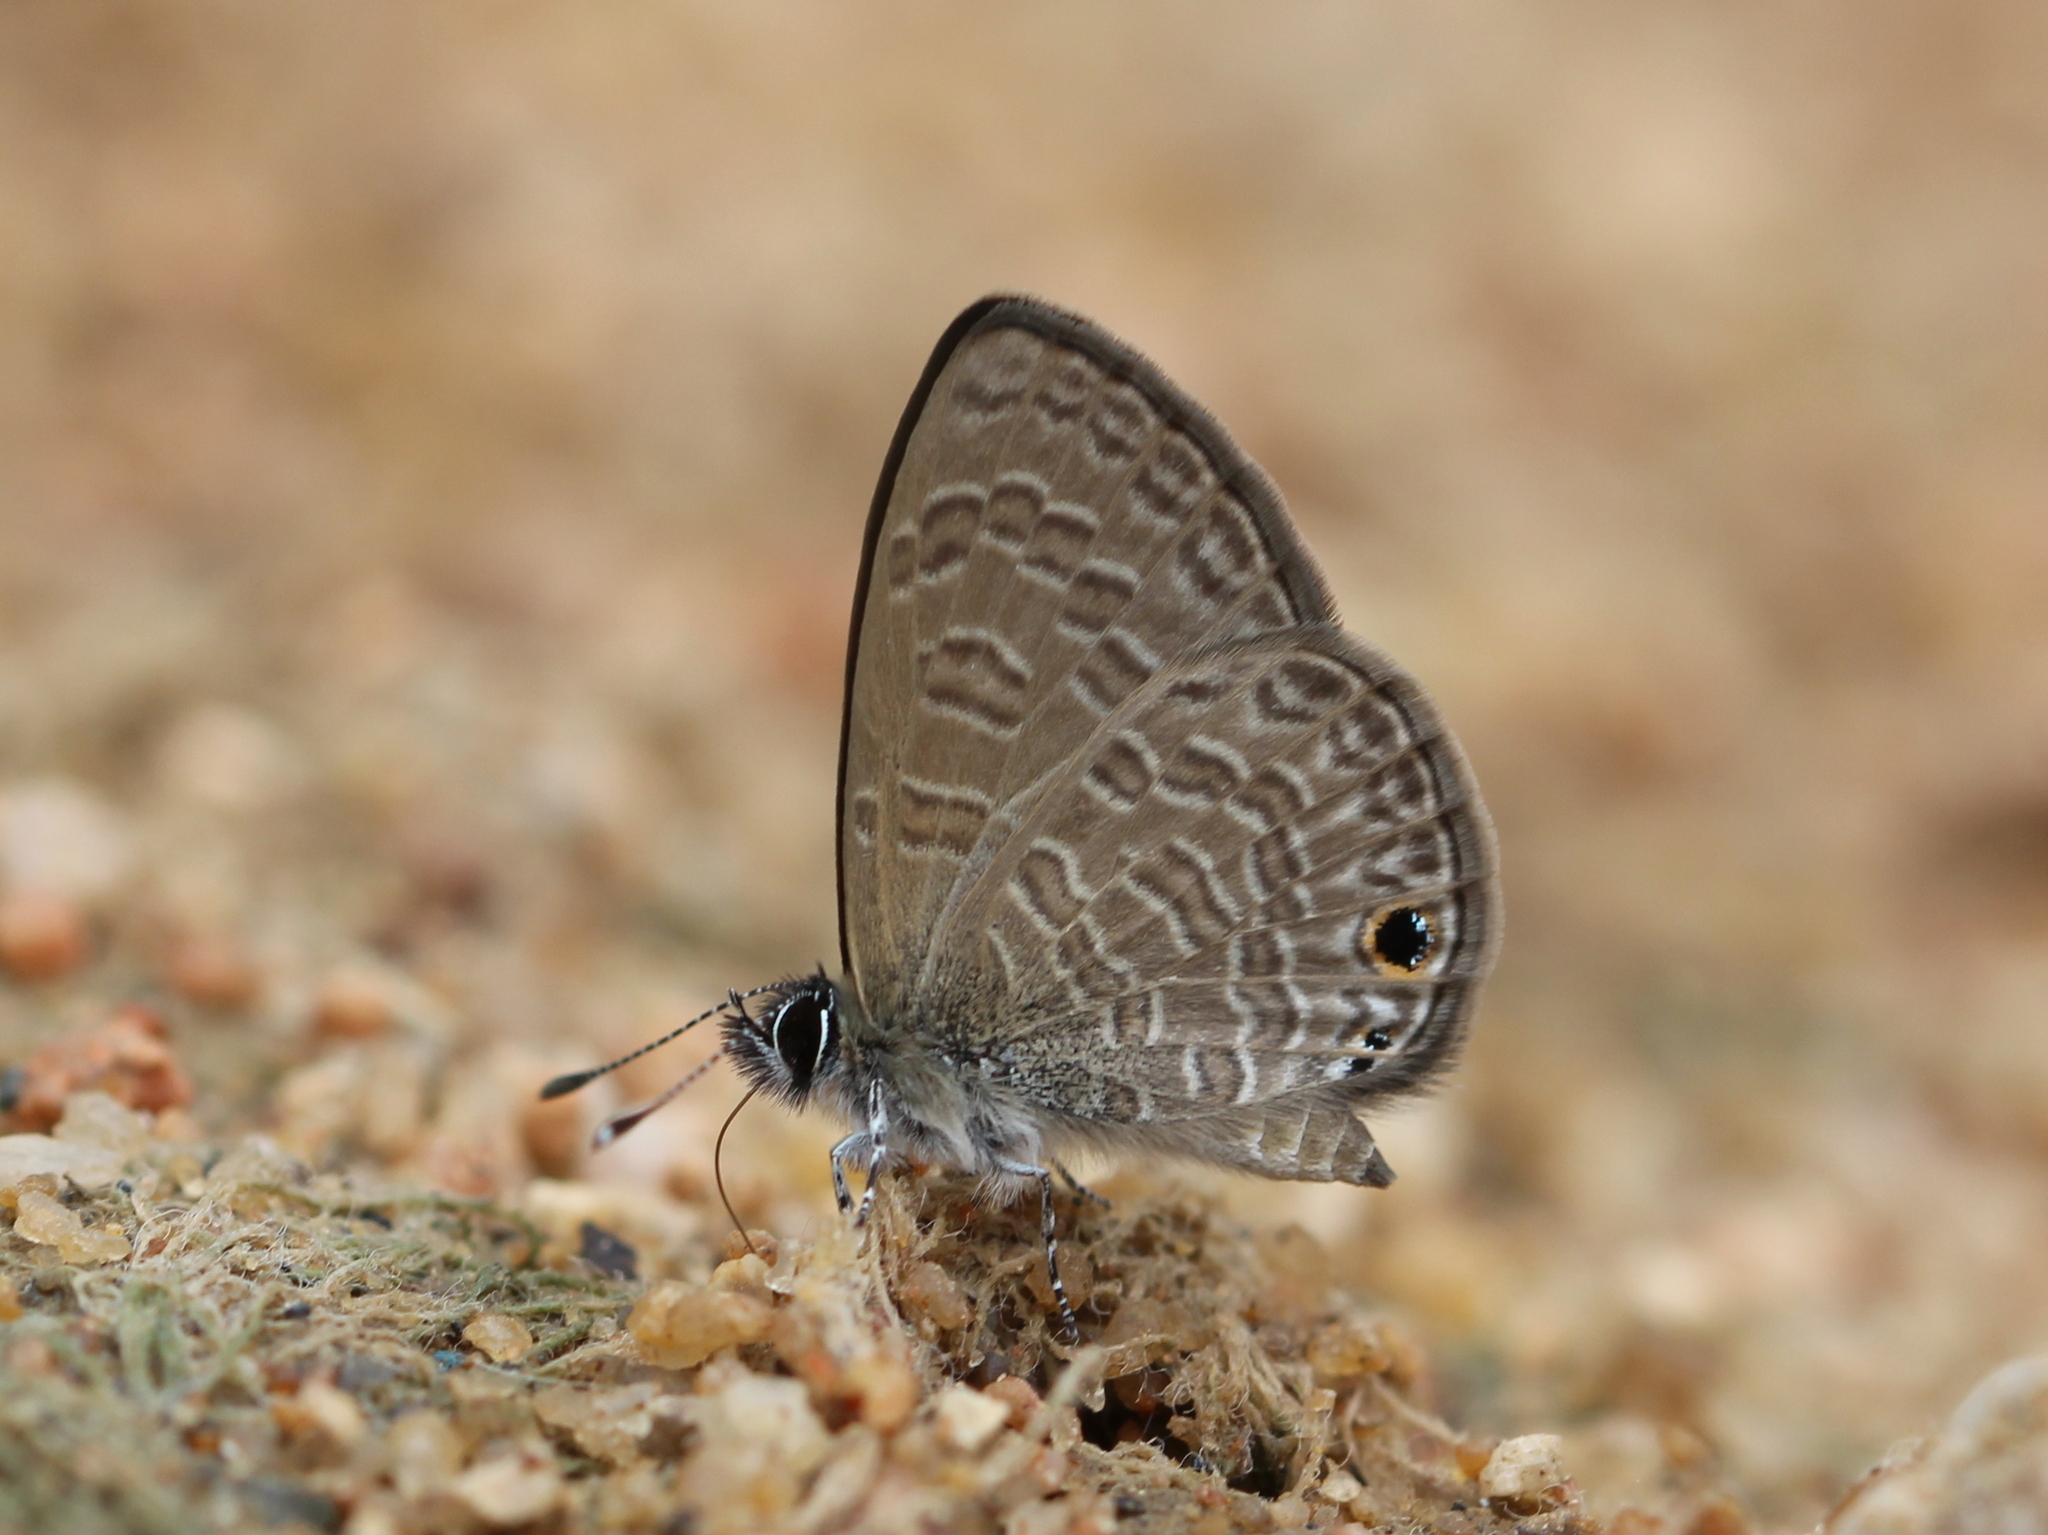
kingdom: Animalia
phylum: Arthropoda
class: Insecta
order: Lepidoptera
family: Lycaenidae
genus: Prosotas
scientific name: Prosotas dubiosa
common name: Tailless lineblue
